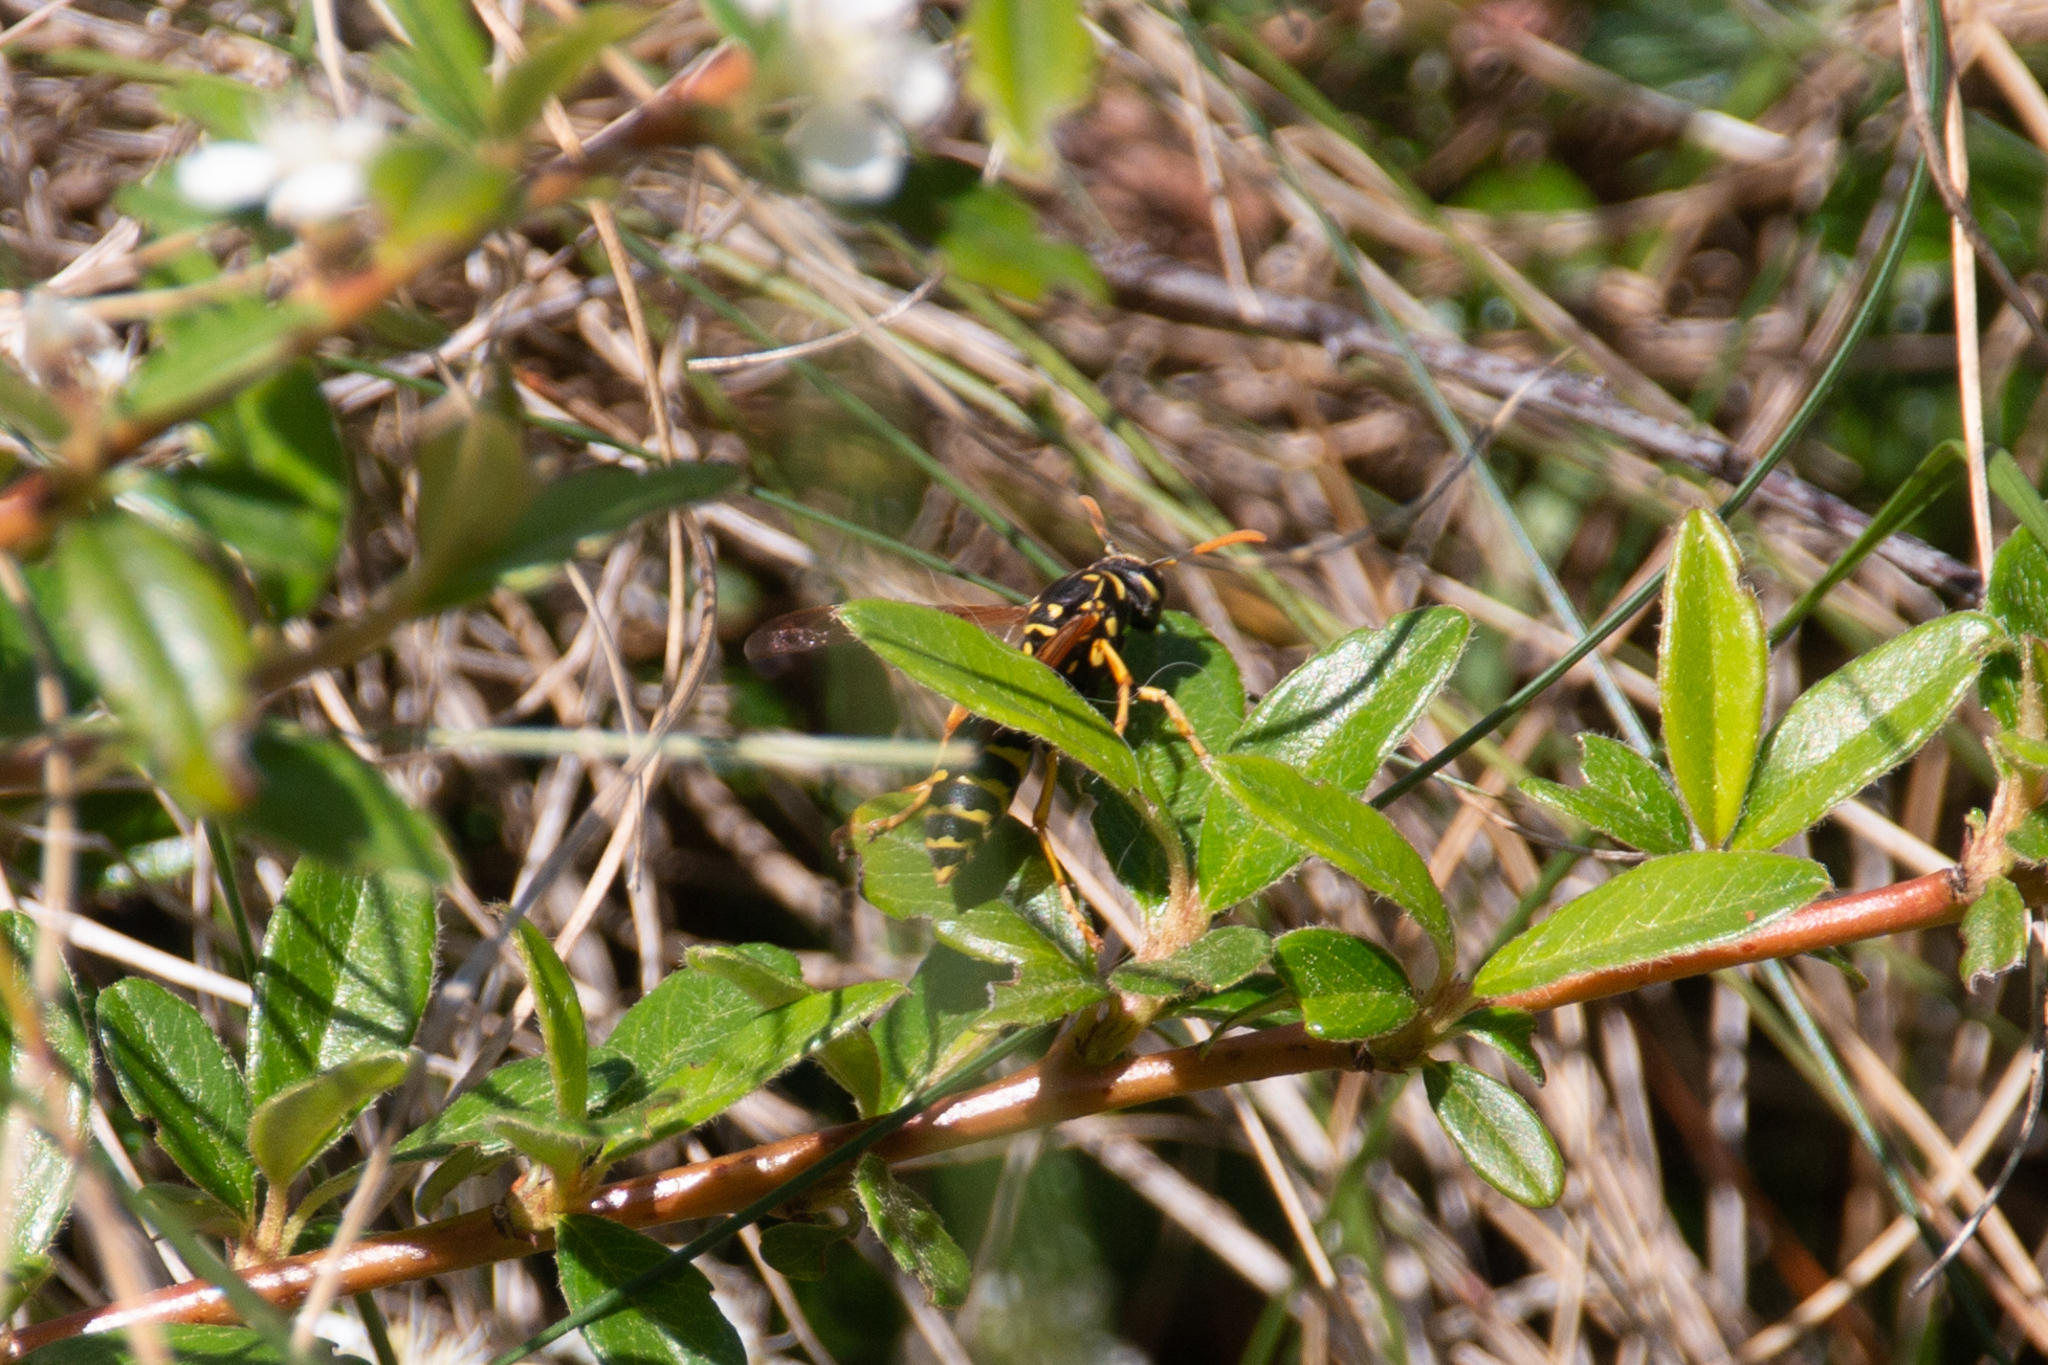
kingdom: Animalia
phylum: Arthropoda
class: Insecta
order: Hymenoptera
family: Eumenidae
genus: Polistes
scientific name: Polistes dominula
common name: Paper wasp
